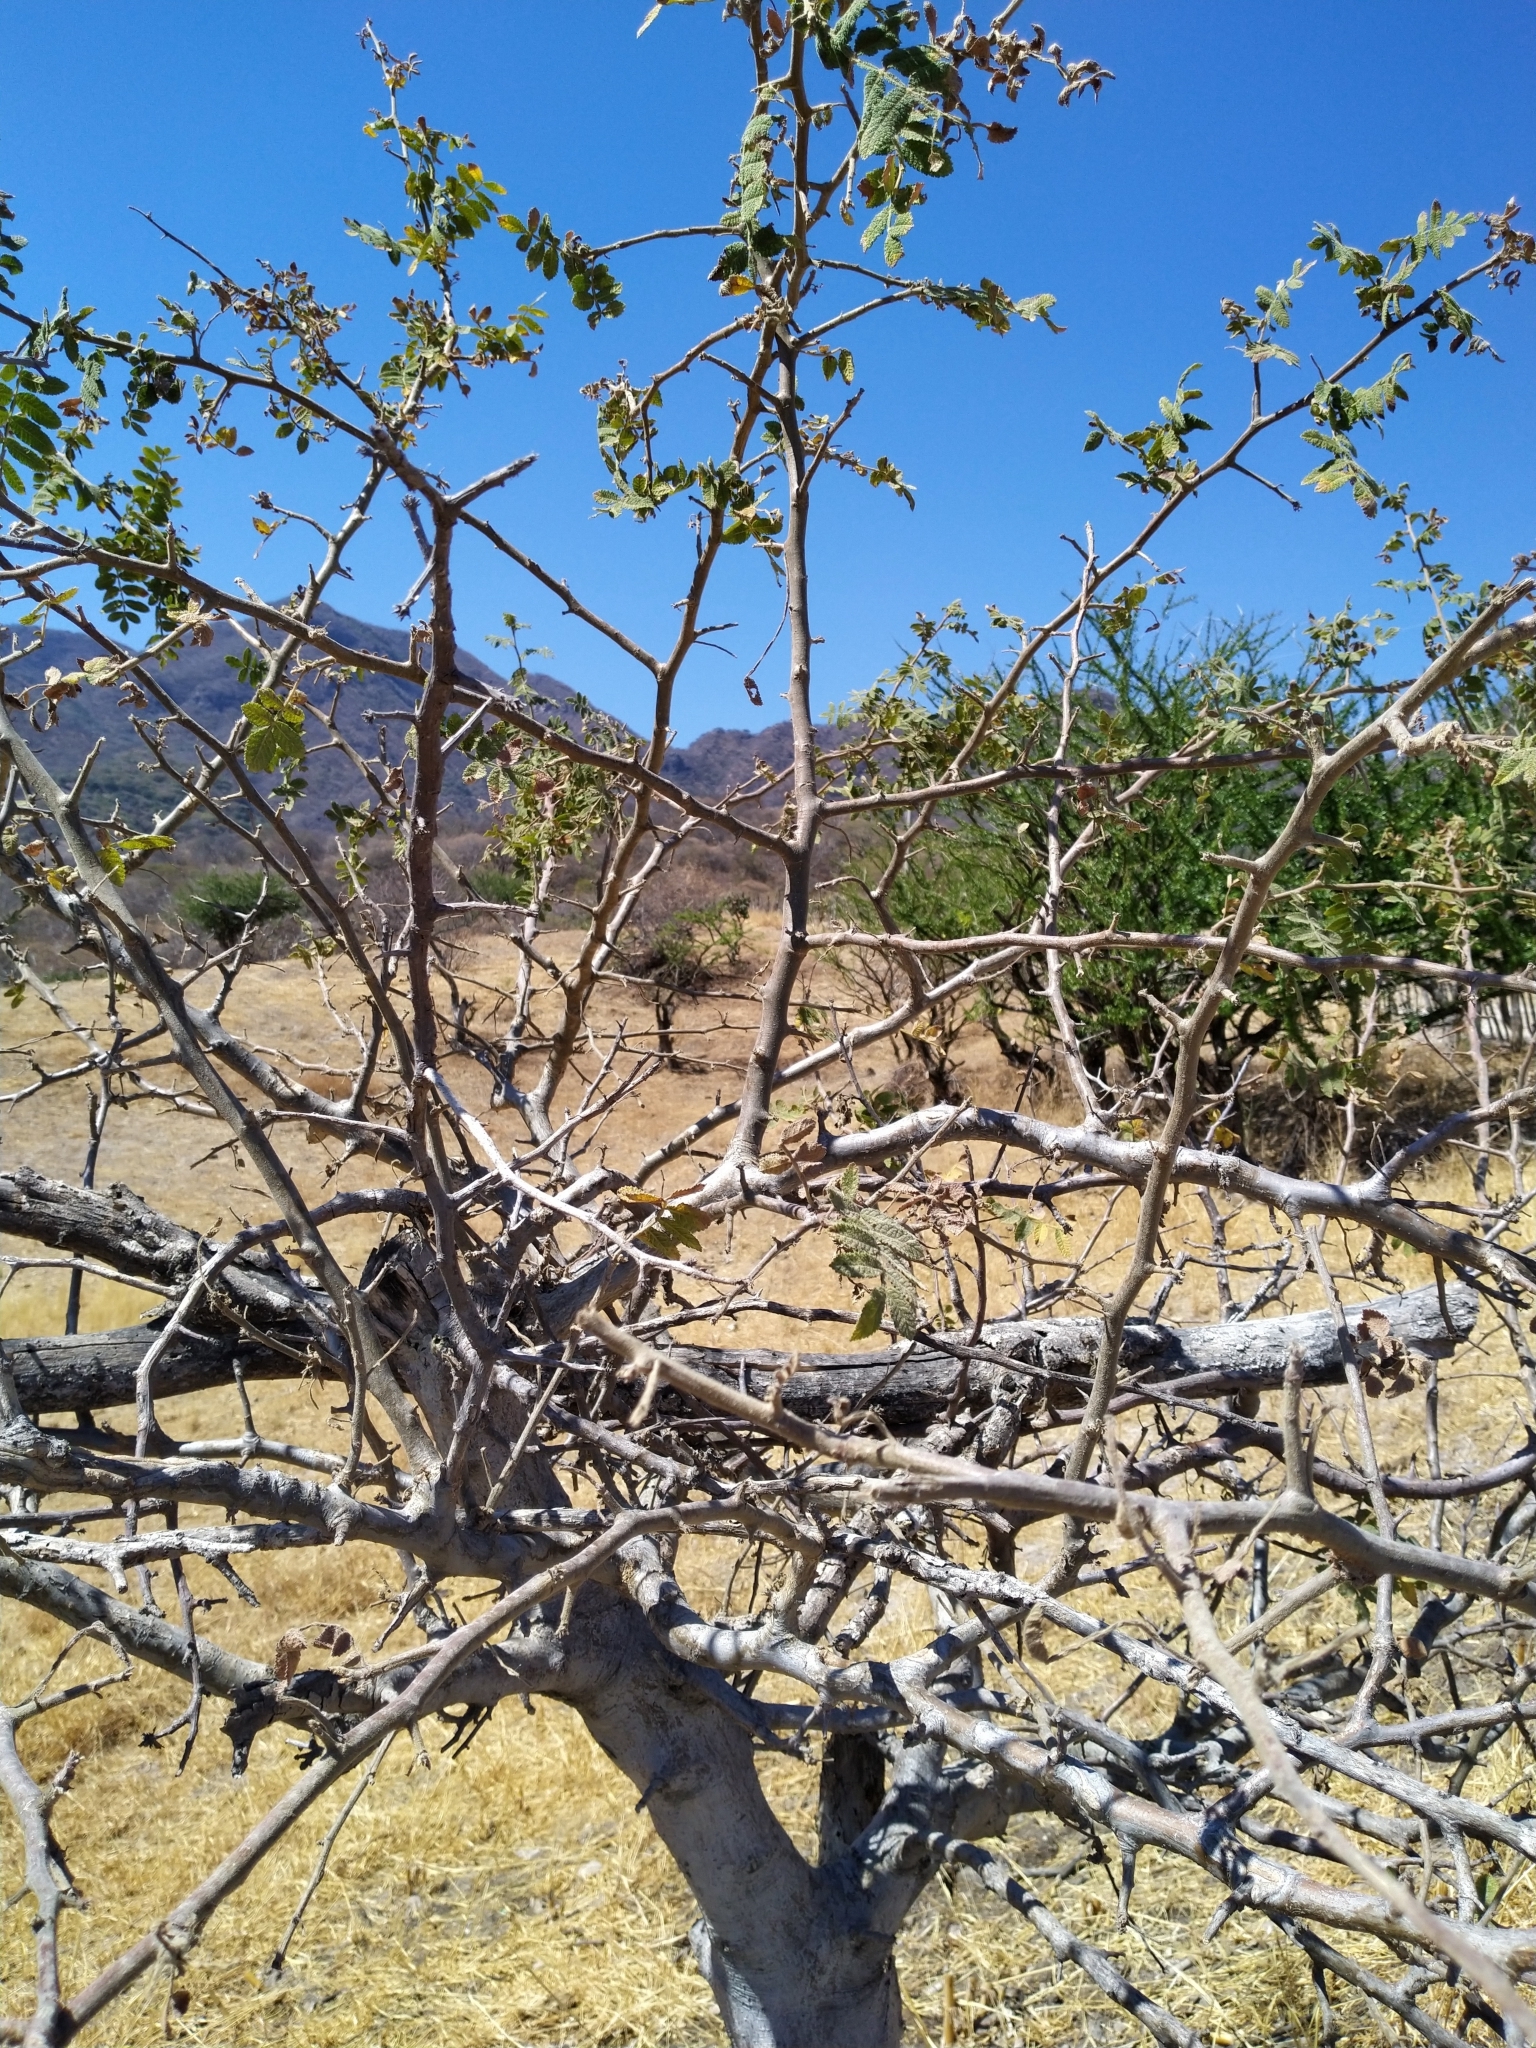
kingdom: Plantae
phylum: Tracheophyta
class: Magnoliopsida
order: Sapindales
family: Burseraceae
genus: Bursera
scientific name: Bursera copallifera
